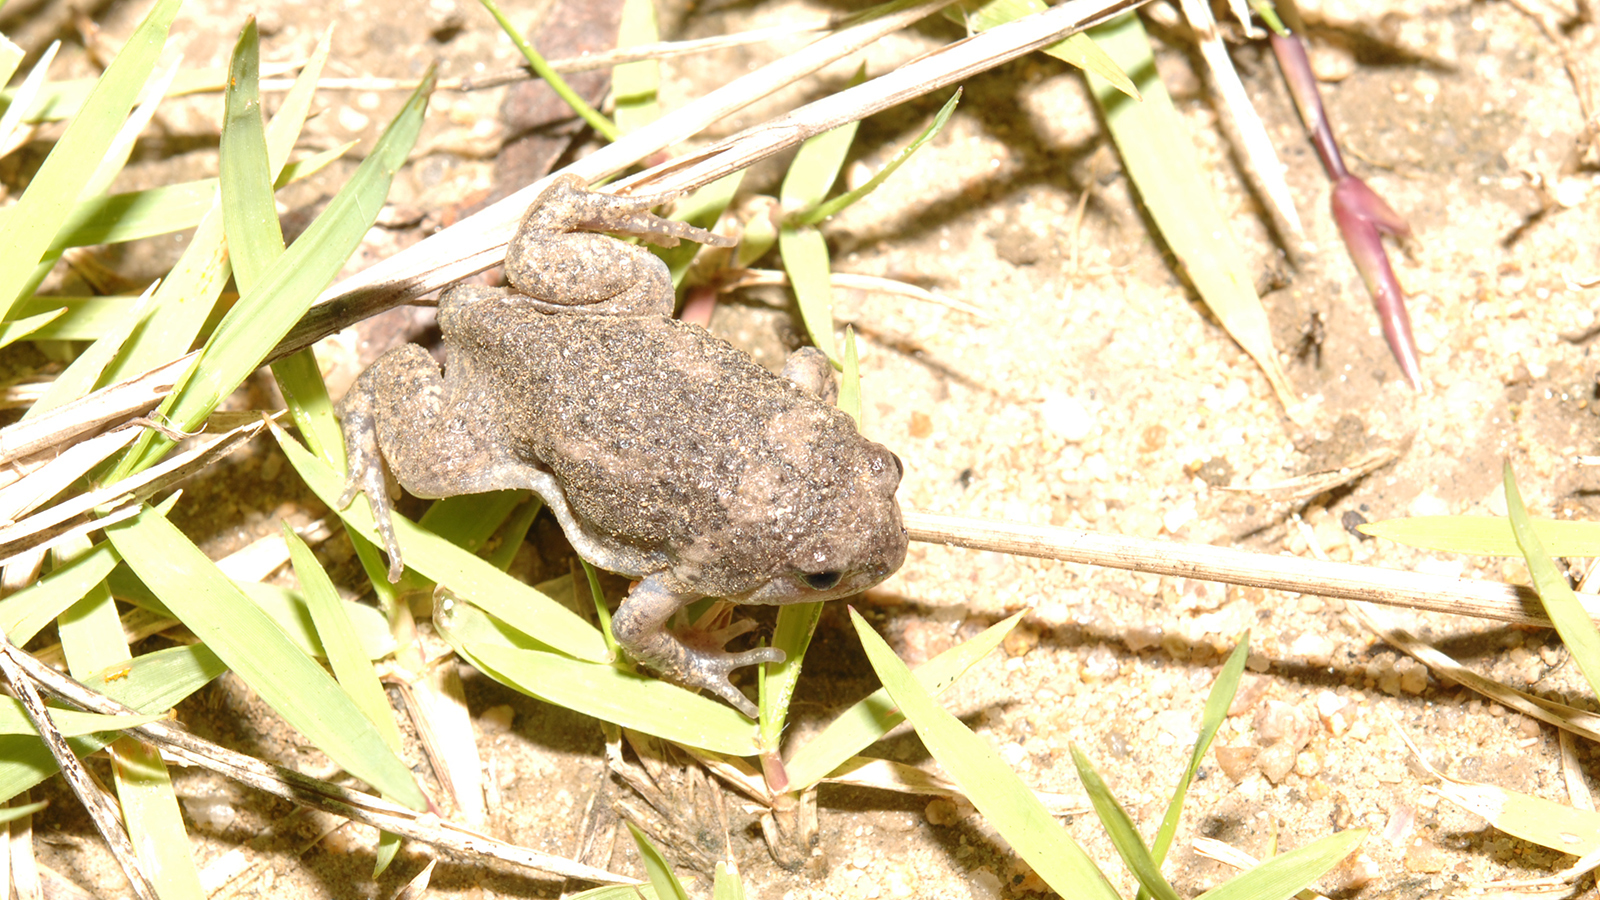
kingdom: Animalia
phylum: Chordata
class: Amphibia
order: Anura
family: Microhylidae
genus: Kaloula
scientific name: Kaloula borealis
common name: Boreal digging frog
